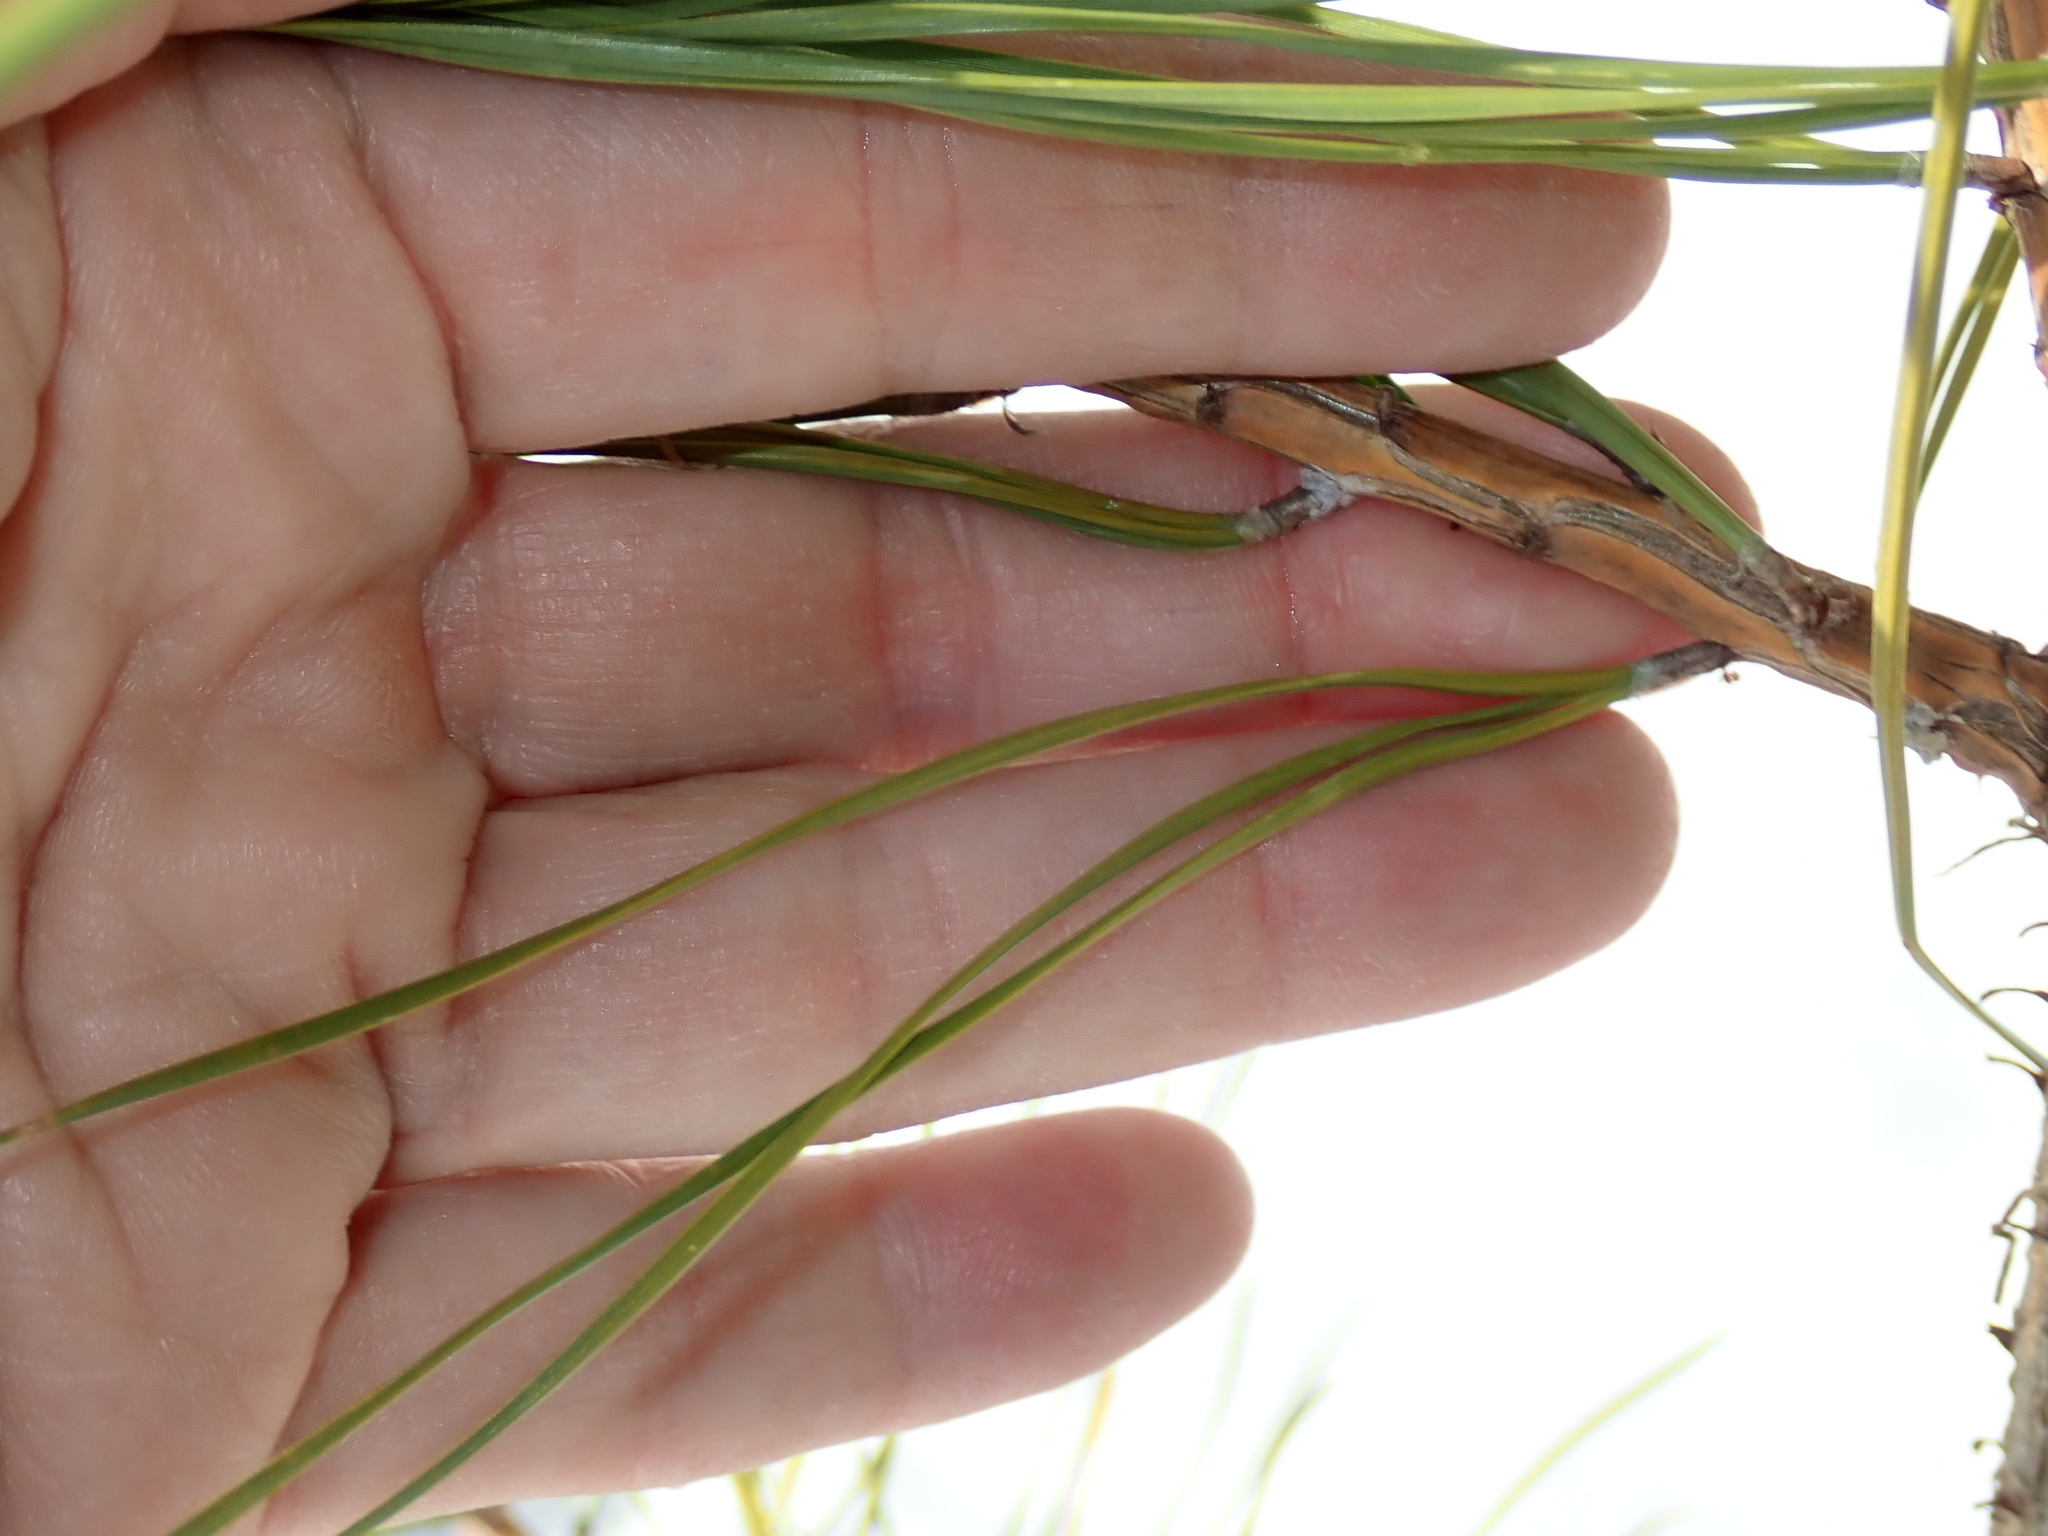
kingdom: Plantae
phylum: Tracheophyta
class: Pinopsida
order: Pinales
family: Pinaceae
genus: Pinus
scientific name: Pinus rigida
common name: Pitch pine
